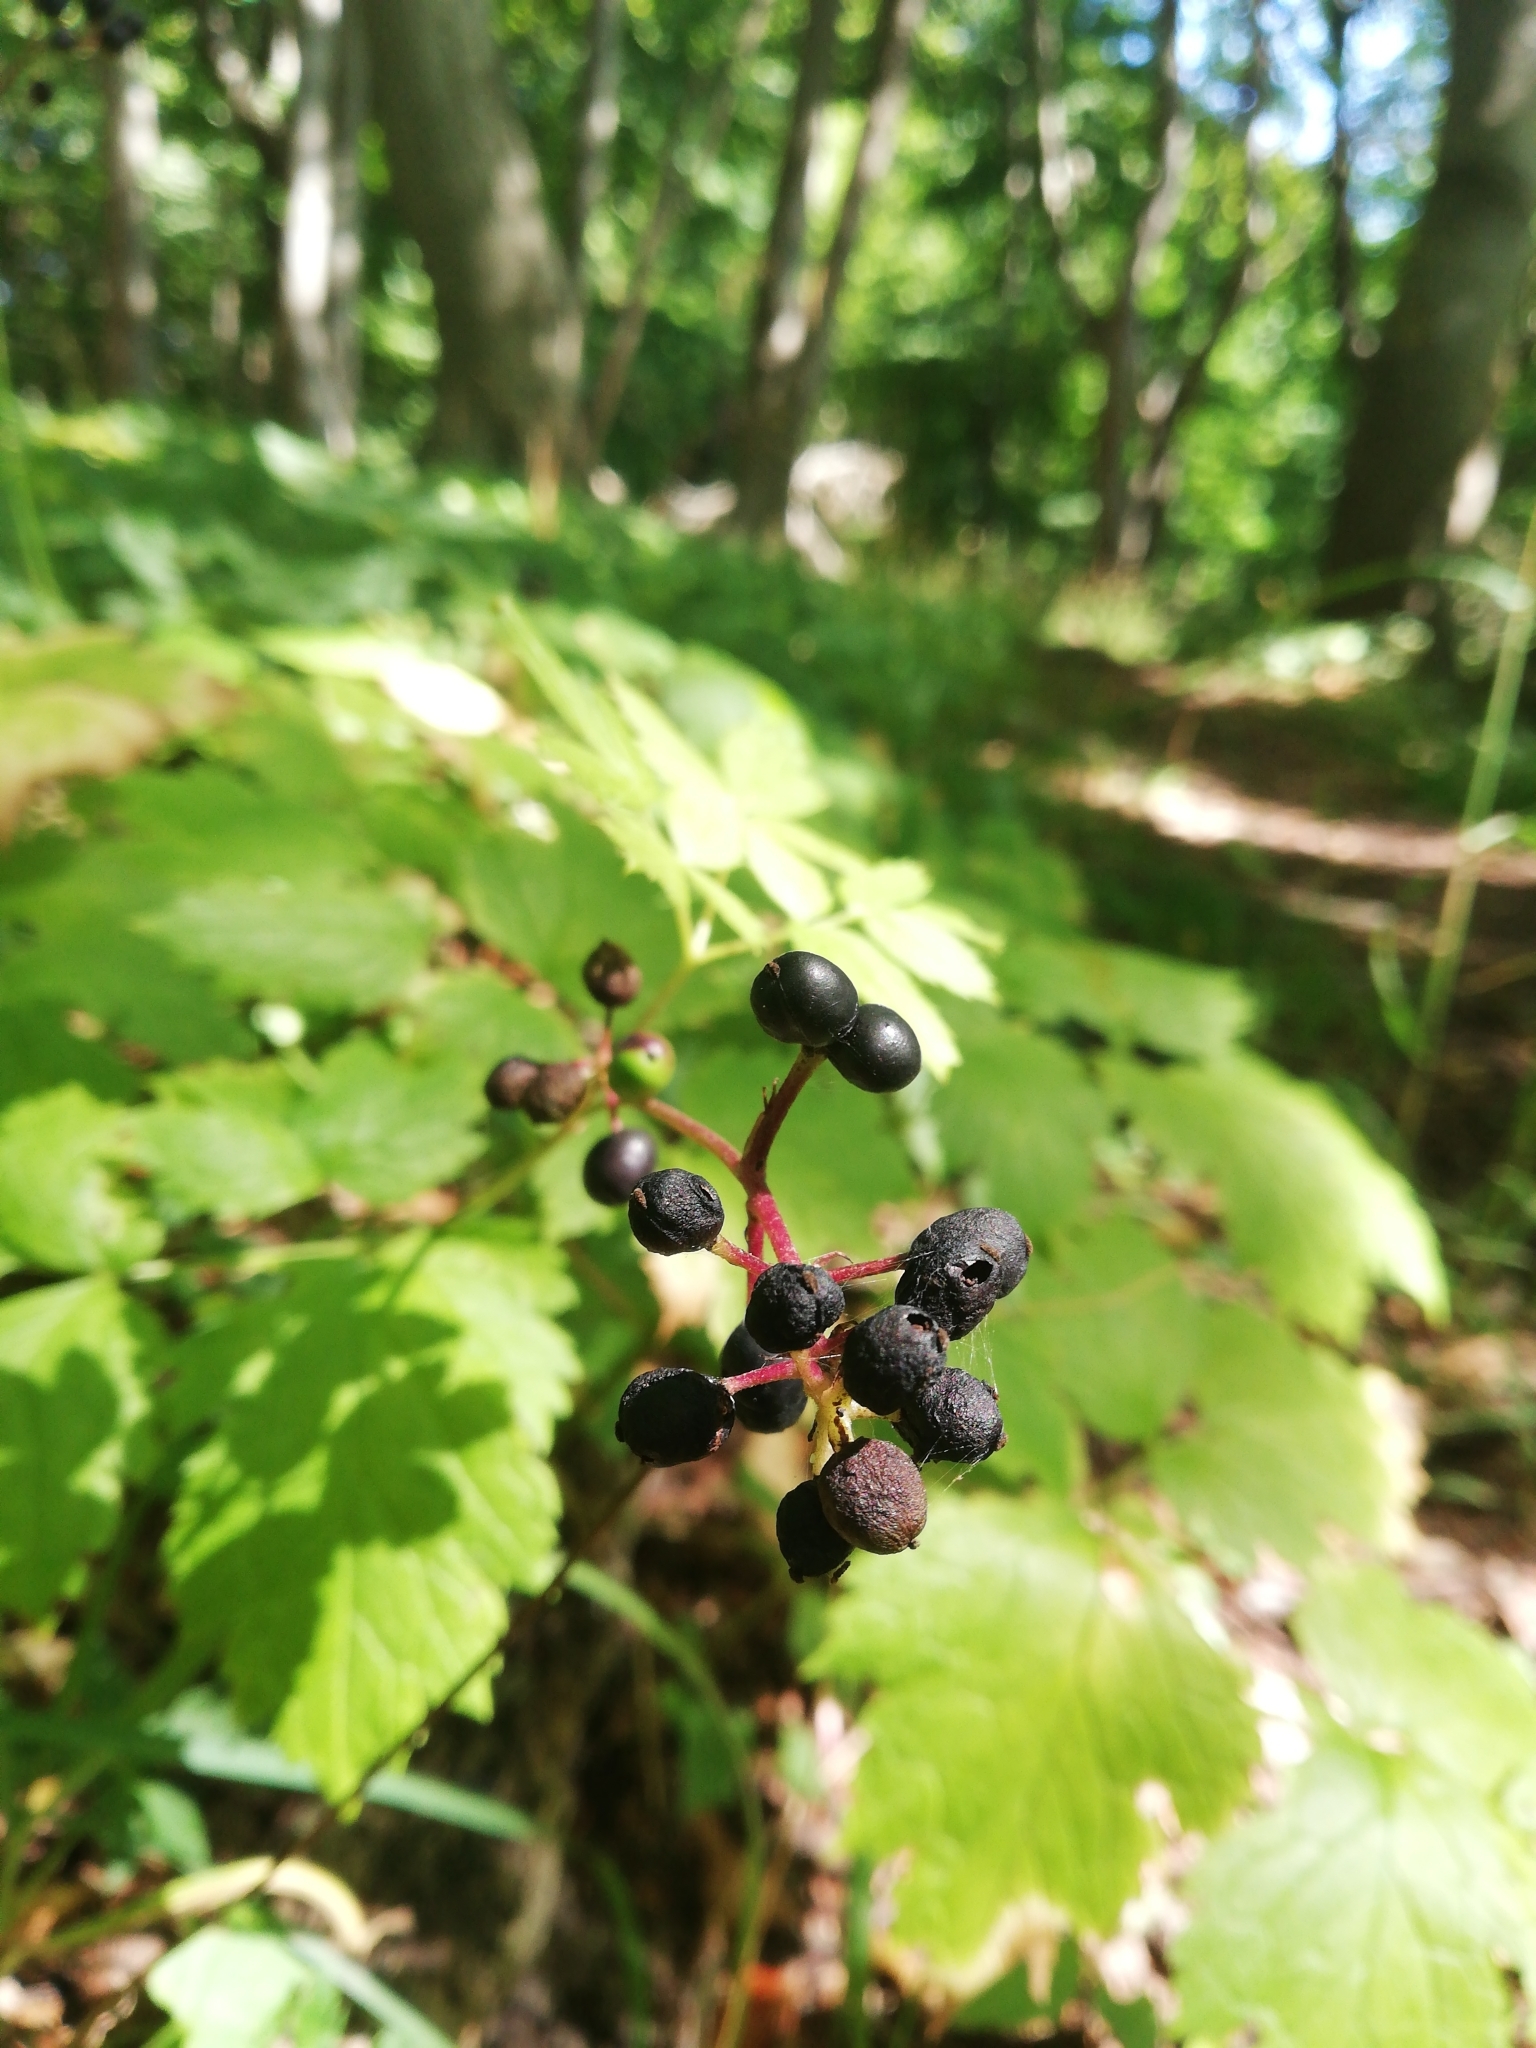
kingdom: Plantae
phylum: Tracheophyta
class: Magnoliopsida
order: Ranunculales
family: Ranunculaceae
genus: Actaea
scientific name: Actaea spicata
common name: Baneberry
